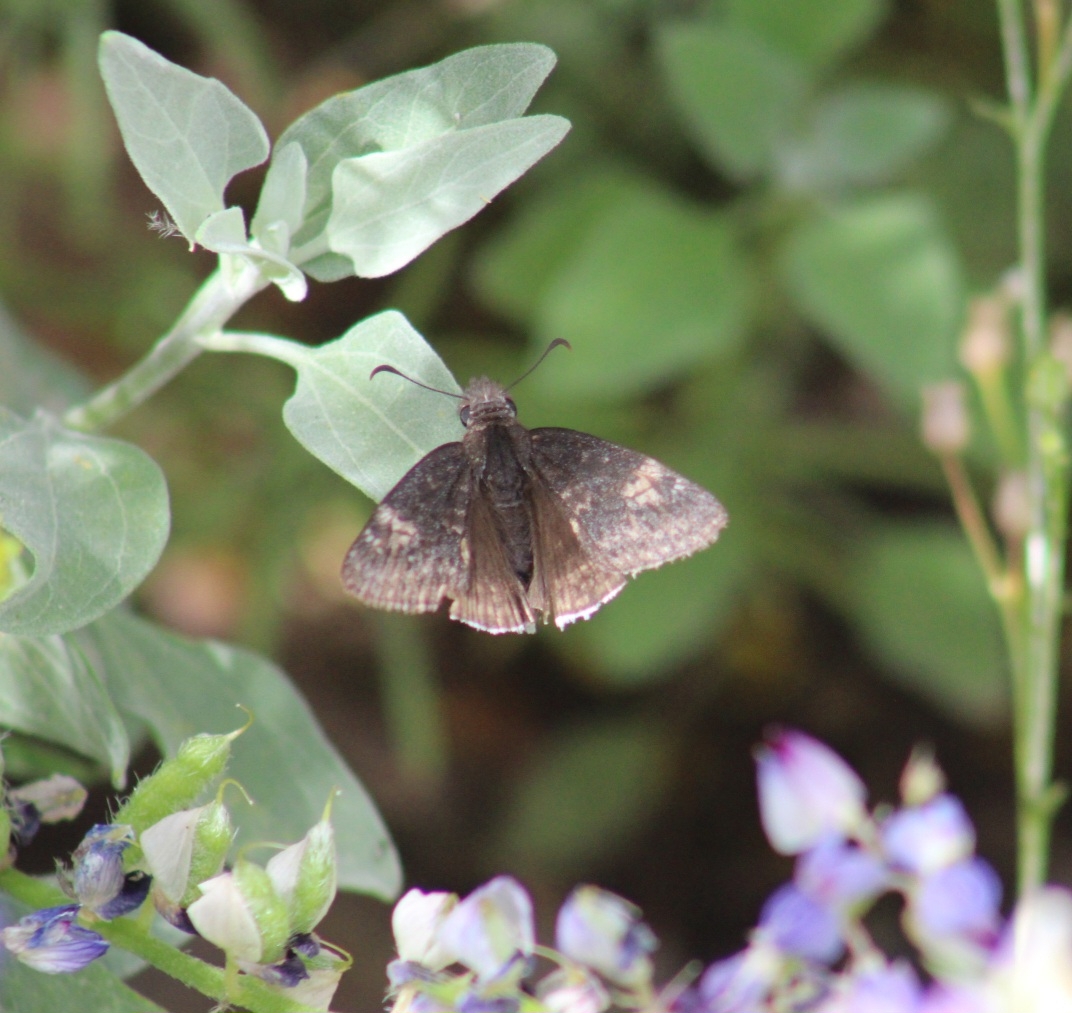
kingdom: Animalia
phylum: Arthropoda
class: Insecta
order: Lepidoptera
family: Hesperiidae
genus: Erynnis
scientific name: Erynnis funeralis
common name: Funereal duskywing
